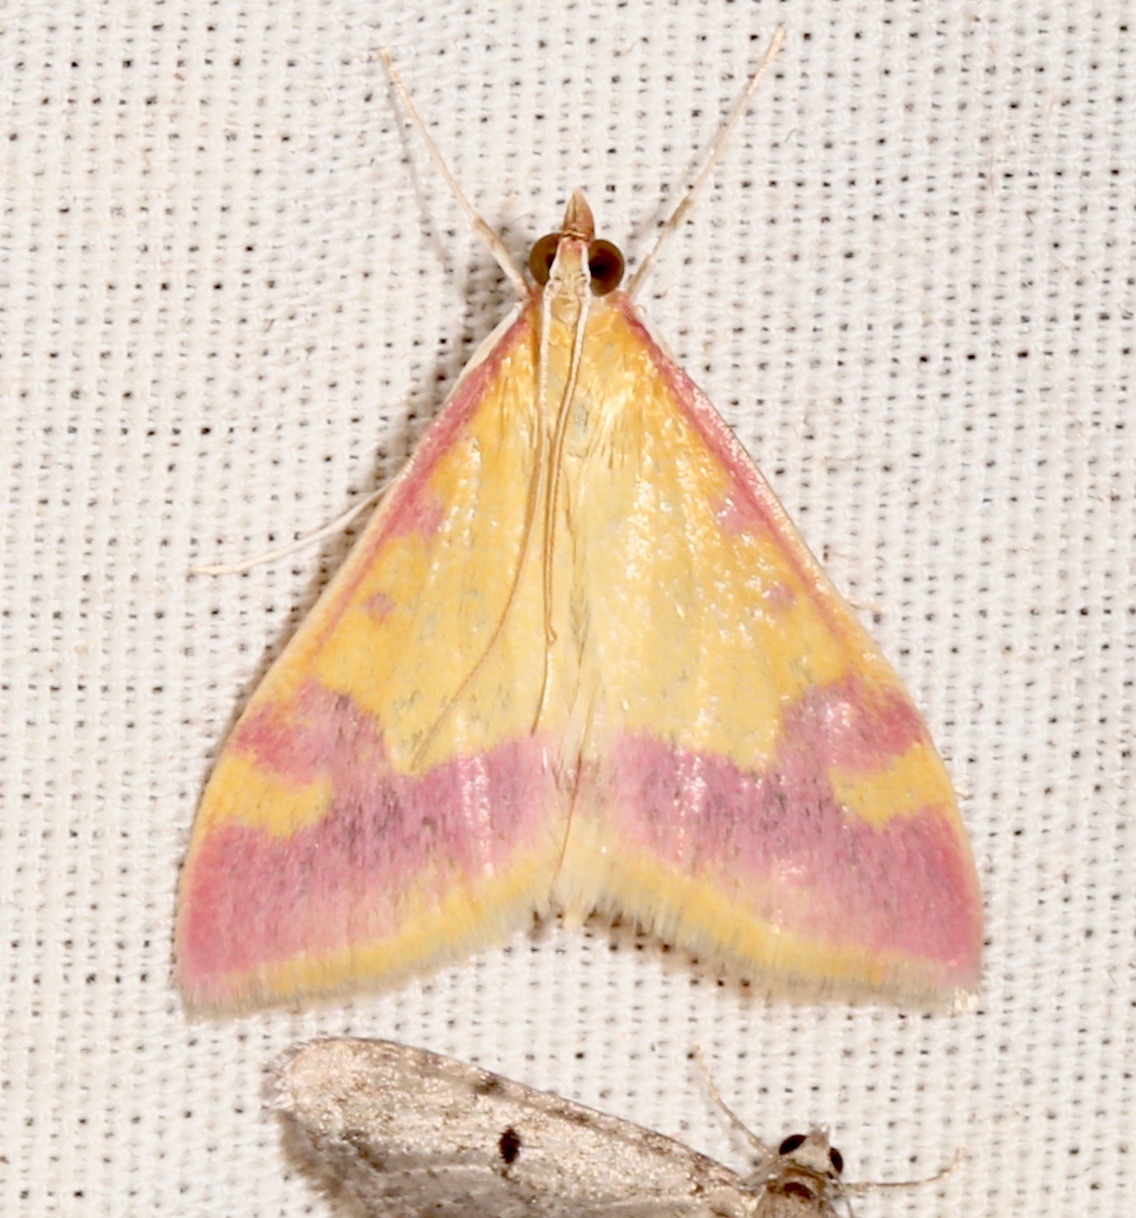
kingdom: Animalia
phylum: Arthropoda
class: Insecta
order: Lepidoptera
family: Crambidae
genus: Pyrausta
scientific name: Pyrausta scurralis
